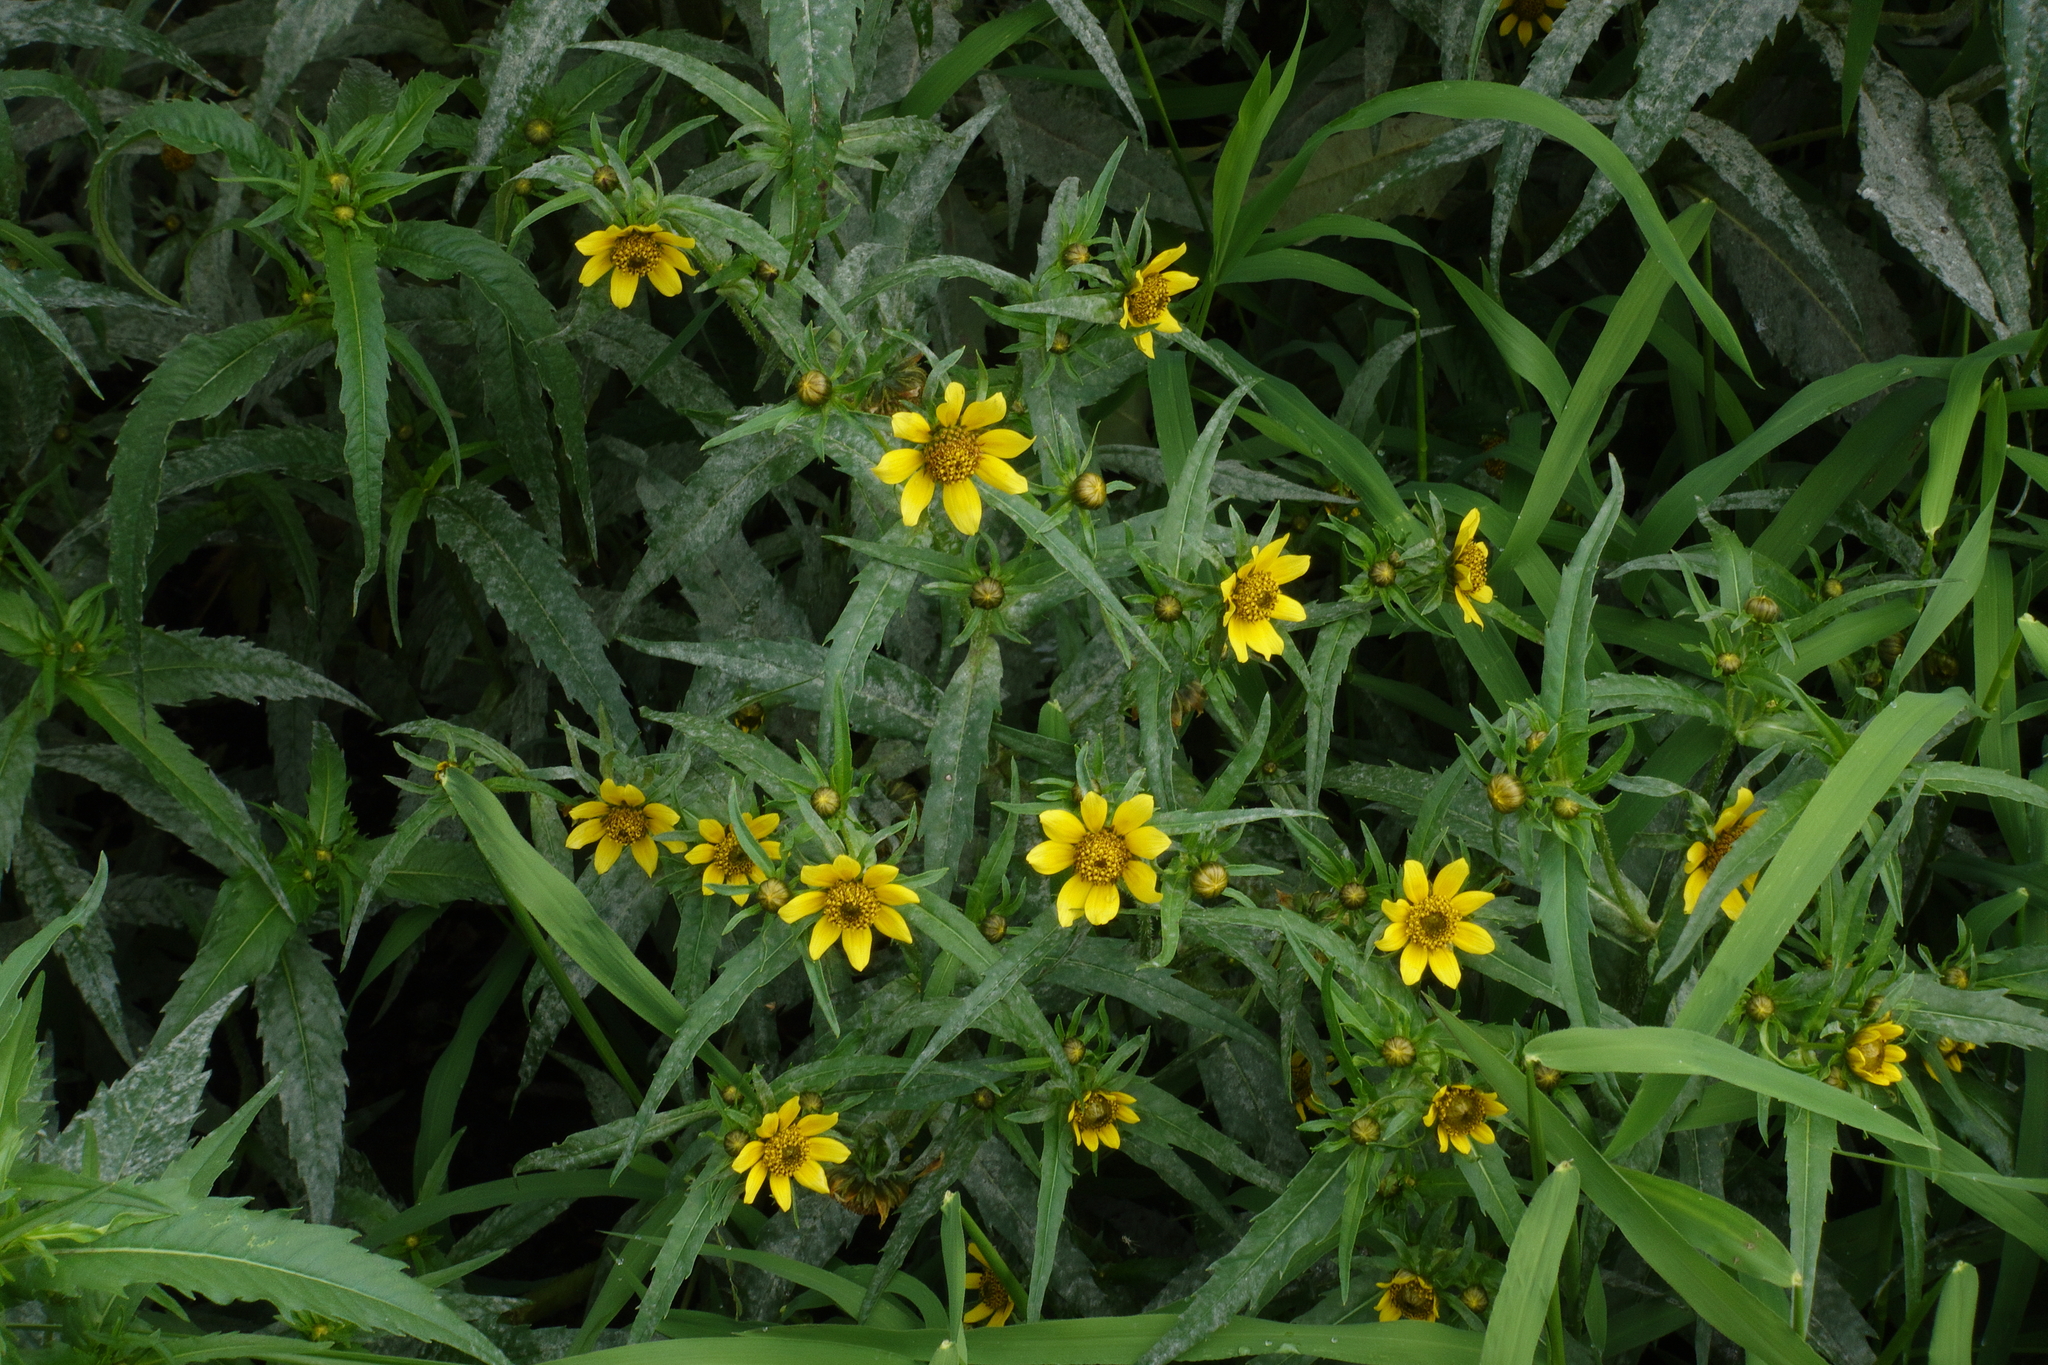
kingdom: Plantae
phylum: Tracheophyta
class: Magnoliopsida
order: Asterales
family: Asteraceae
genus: Bidens
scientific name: Bidens cernua
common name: Nodding bur-marigold
